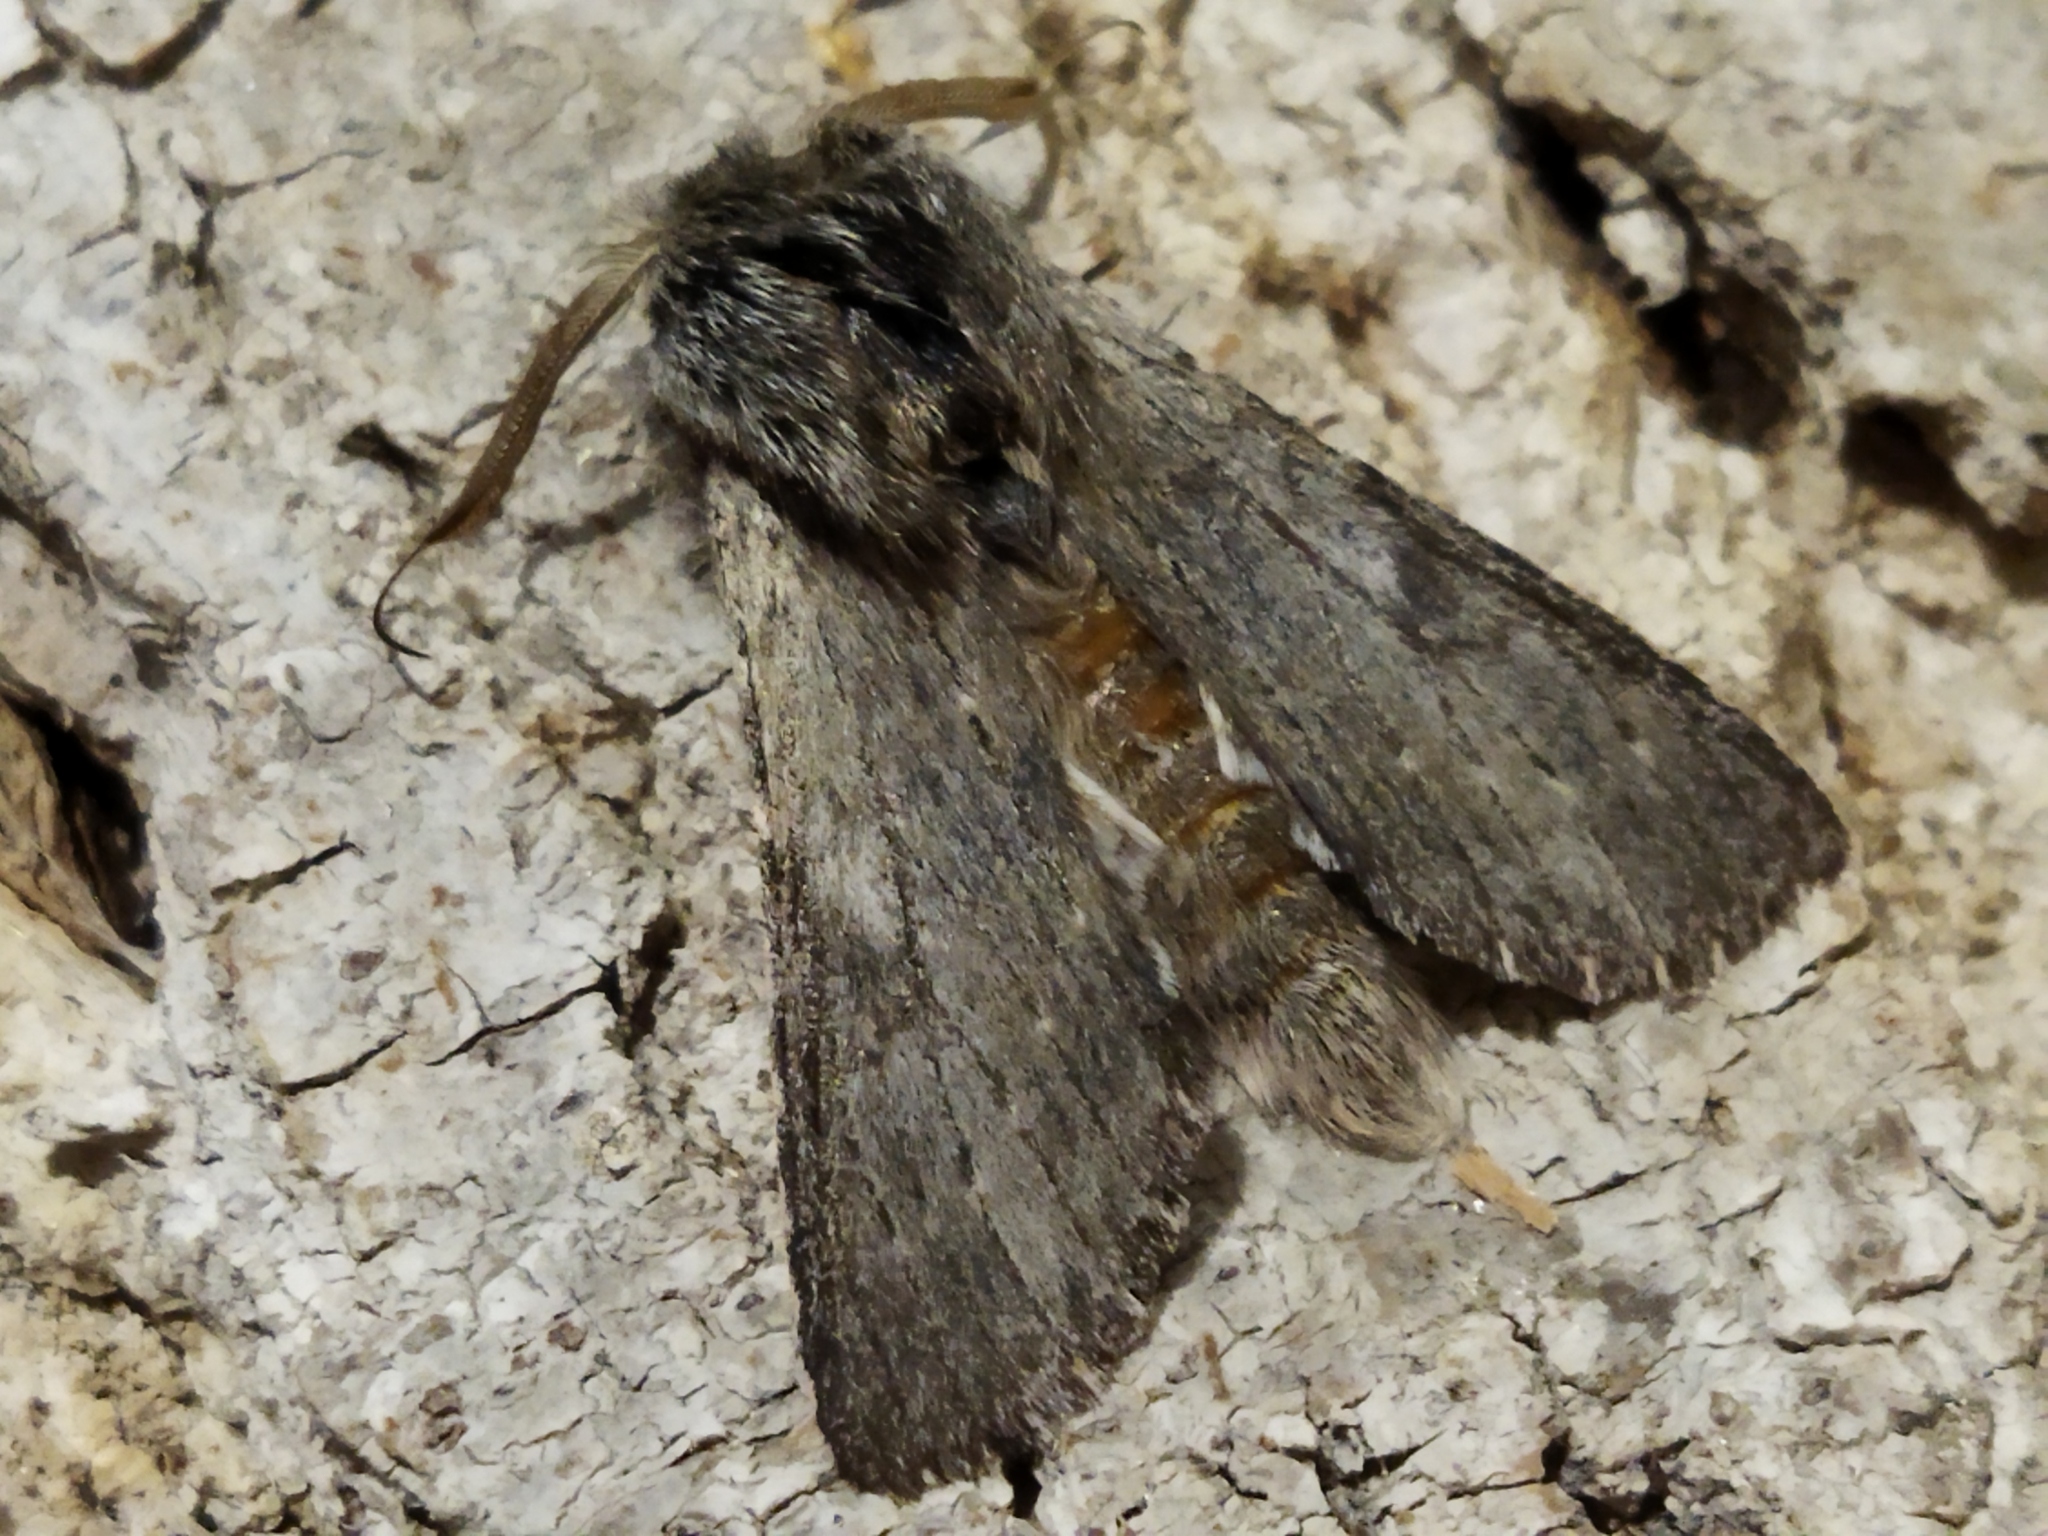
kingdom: Animalia
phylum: Arthropoda
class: Insecta
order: Lepidoptera
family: Notodontidae
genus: Dicranura
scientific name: Dicranura ulmi
